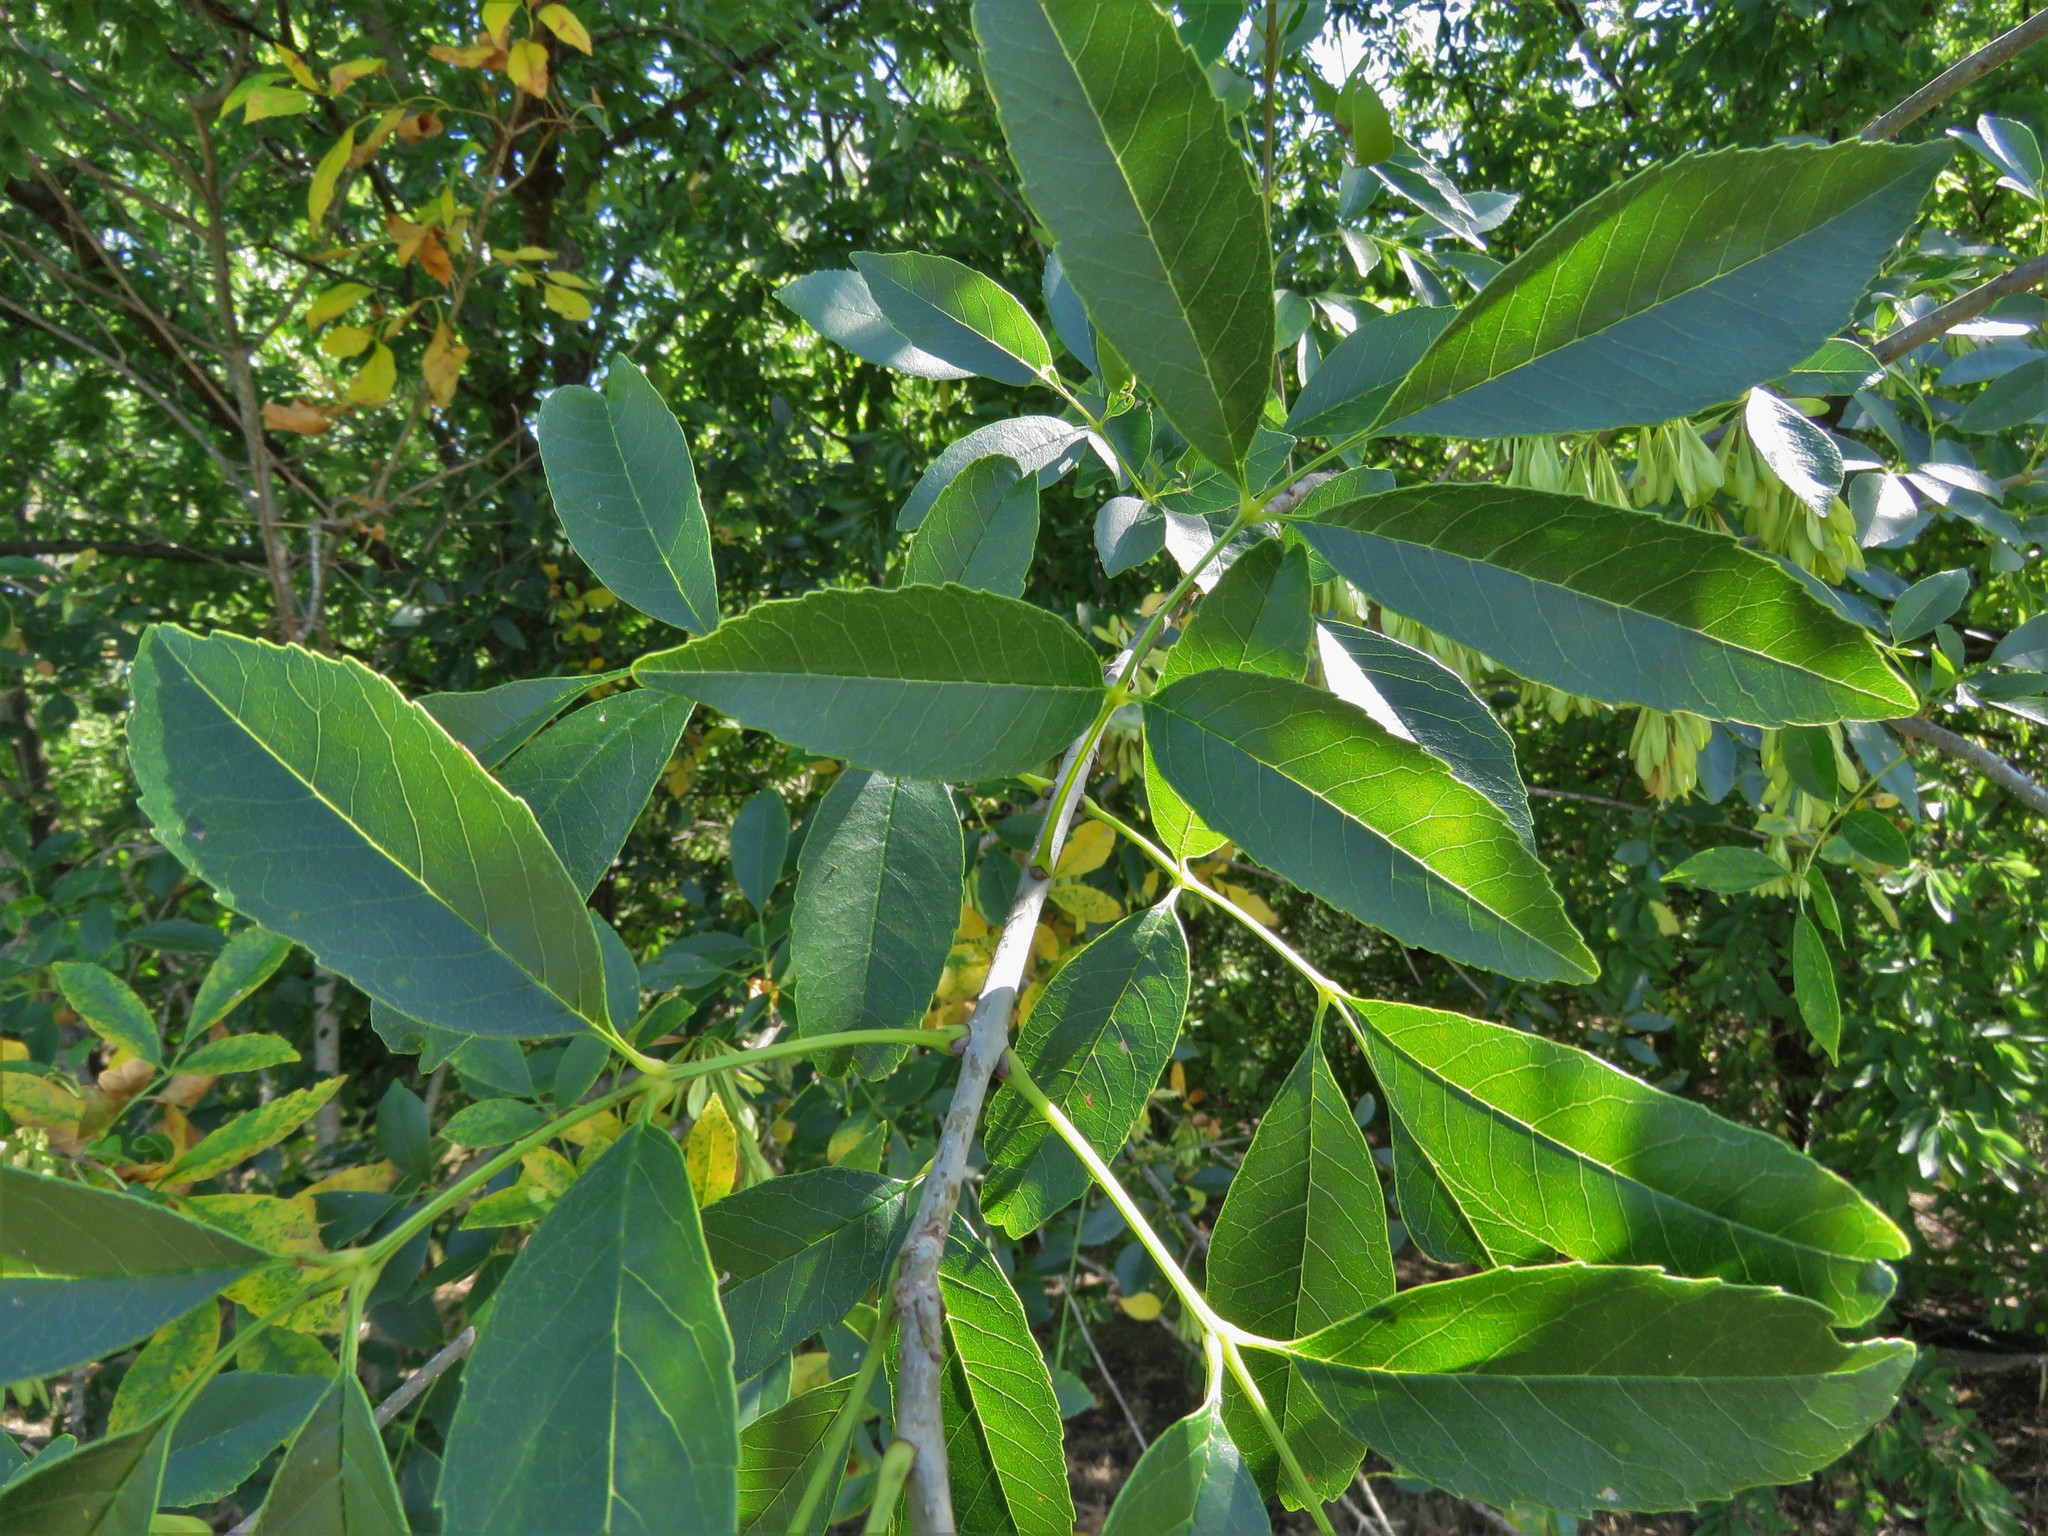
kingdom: Plantae
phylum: Tracheophyta
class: Magnoliopsida
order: Lamiales
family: Oleaceae
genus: Fraxinus
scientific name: Fraxinus pennsylvanica
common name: Green ash
